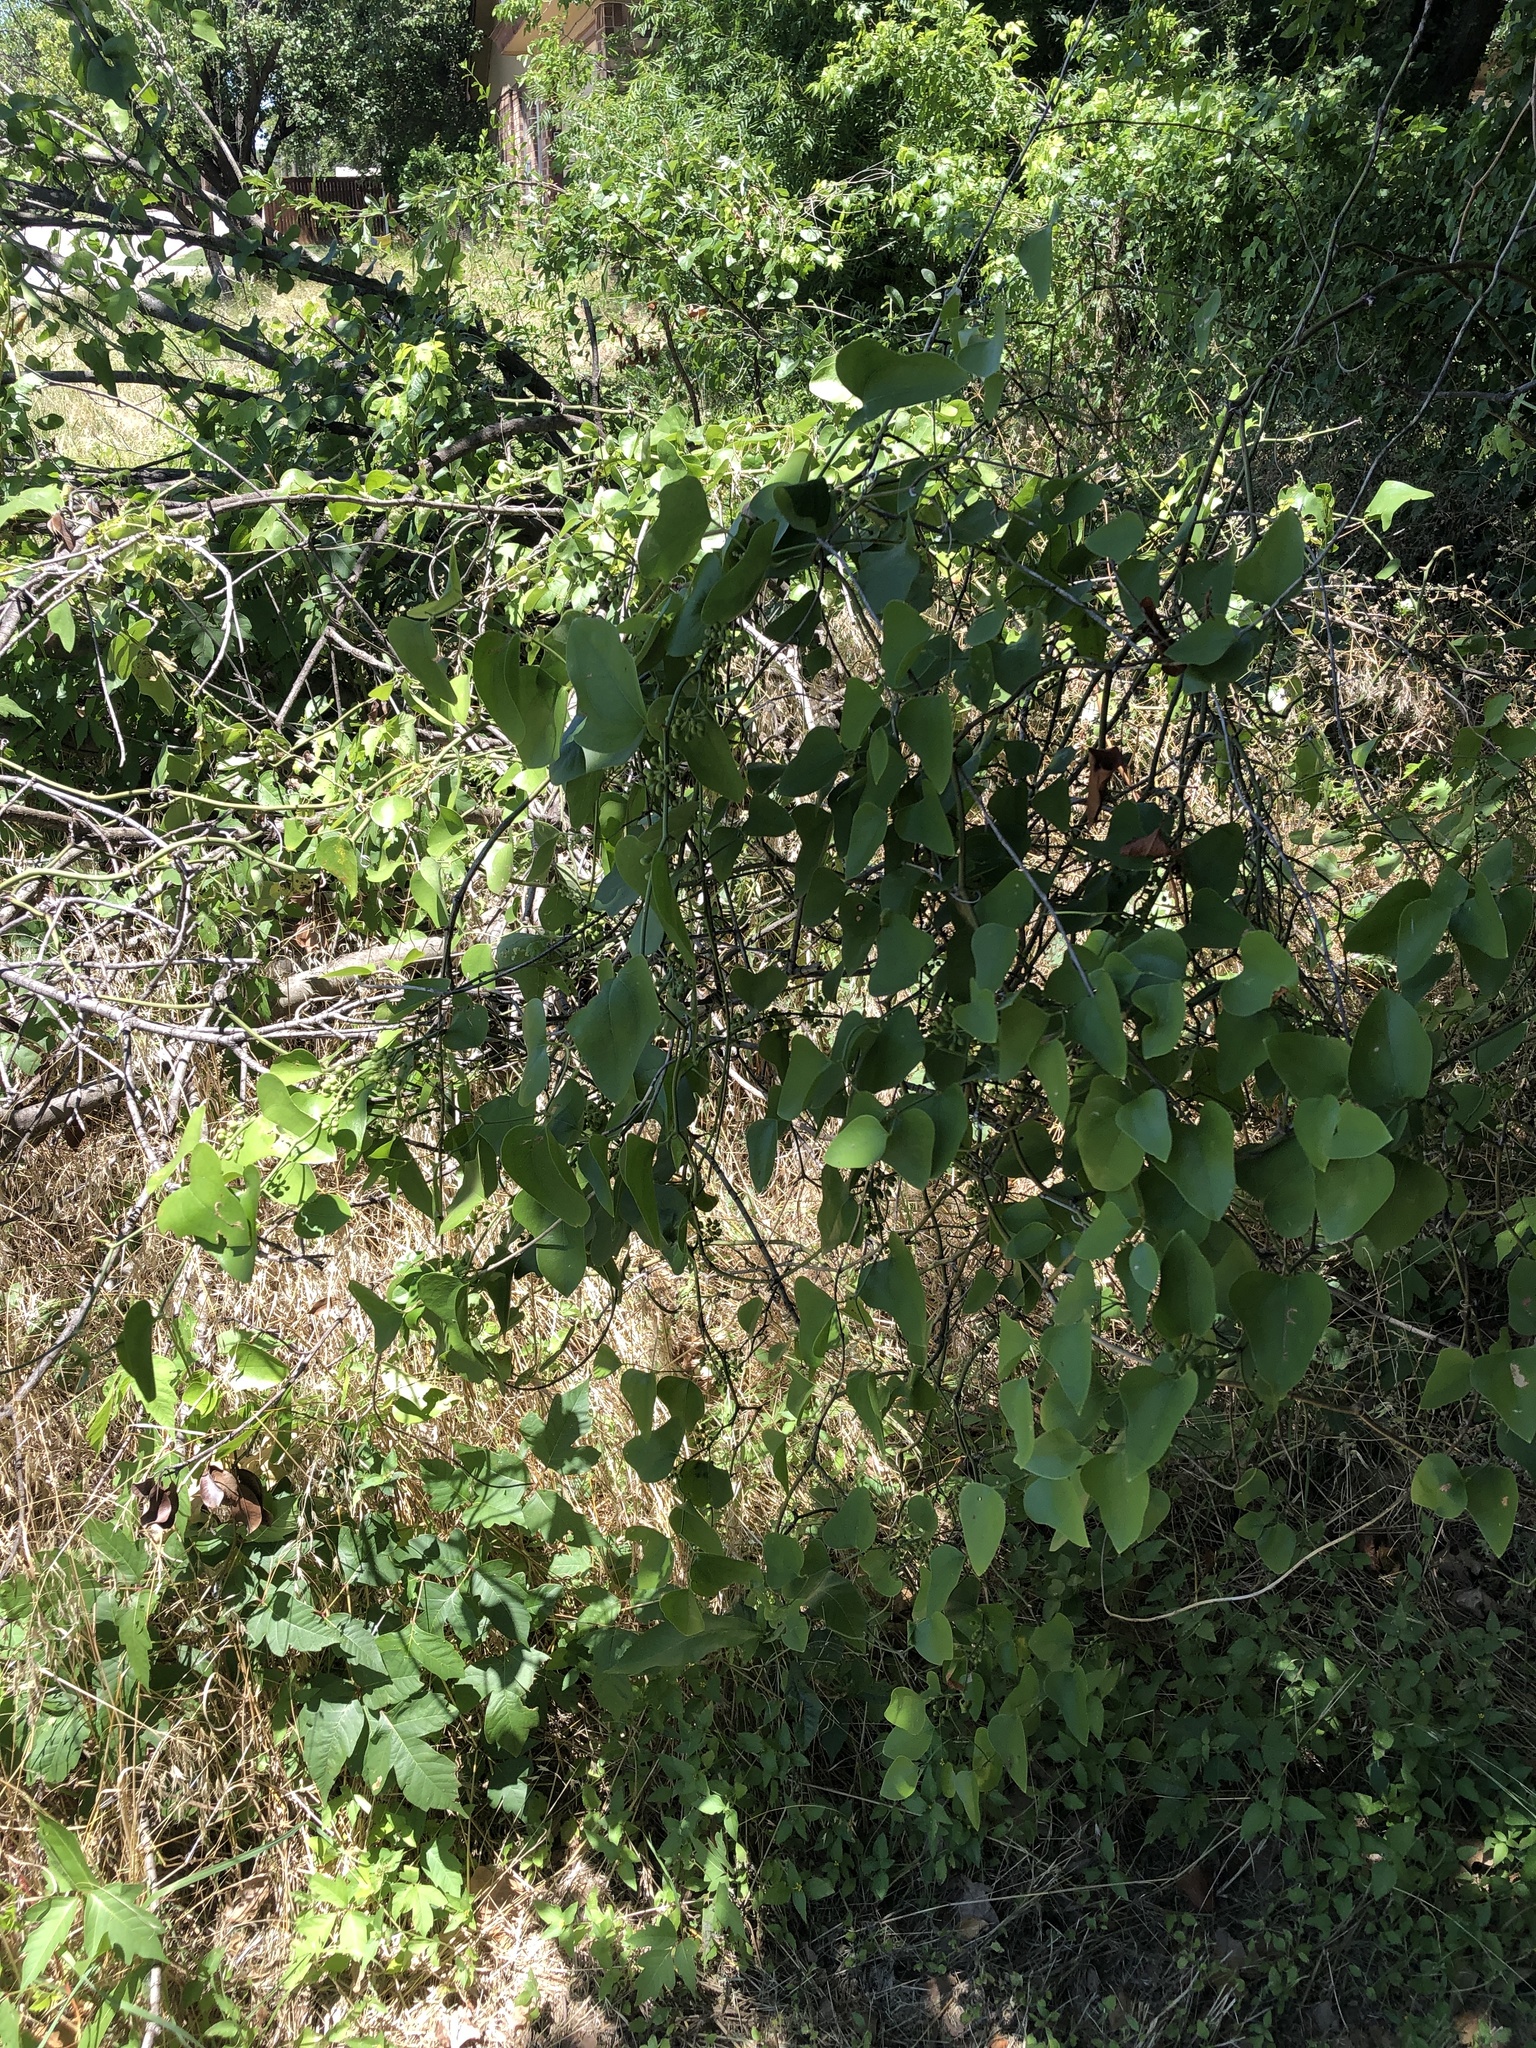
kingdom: Plantae
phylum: Tracheophyta
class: Liliopsida
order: Liliales
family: Smilacaceae
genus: Smilax
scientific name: Smilax bona-nox
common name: Catbrier
